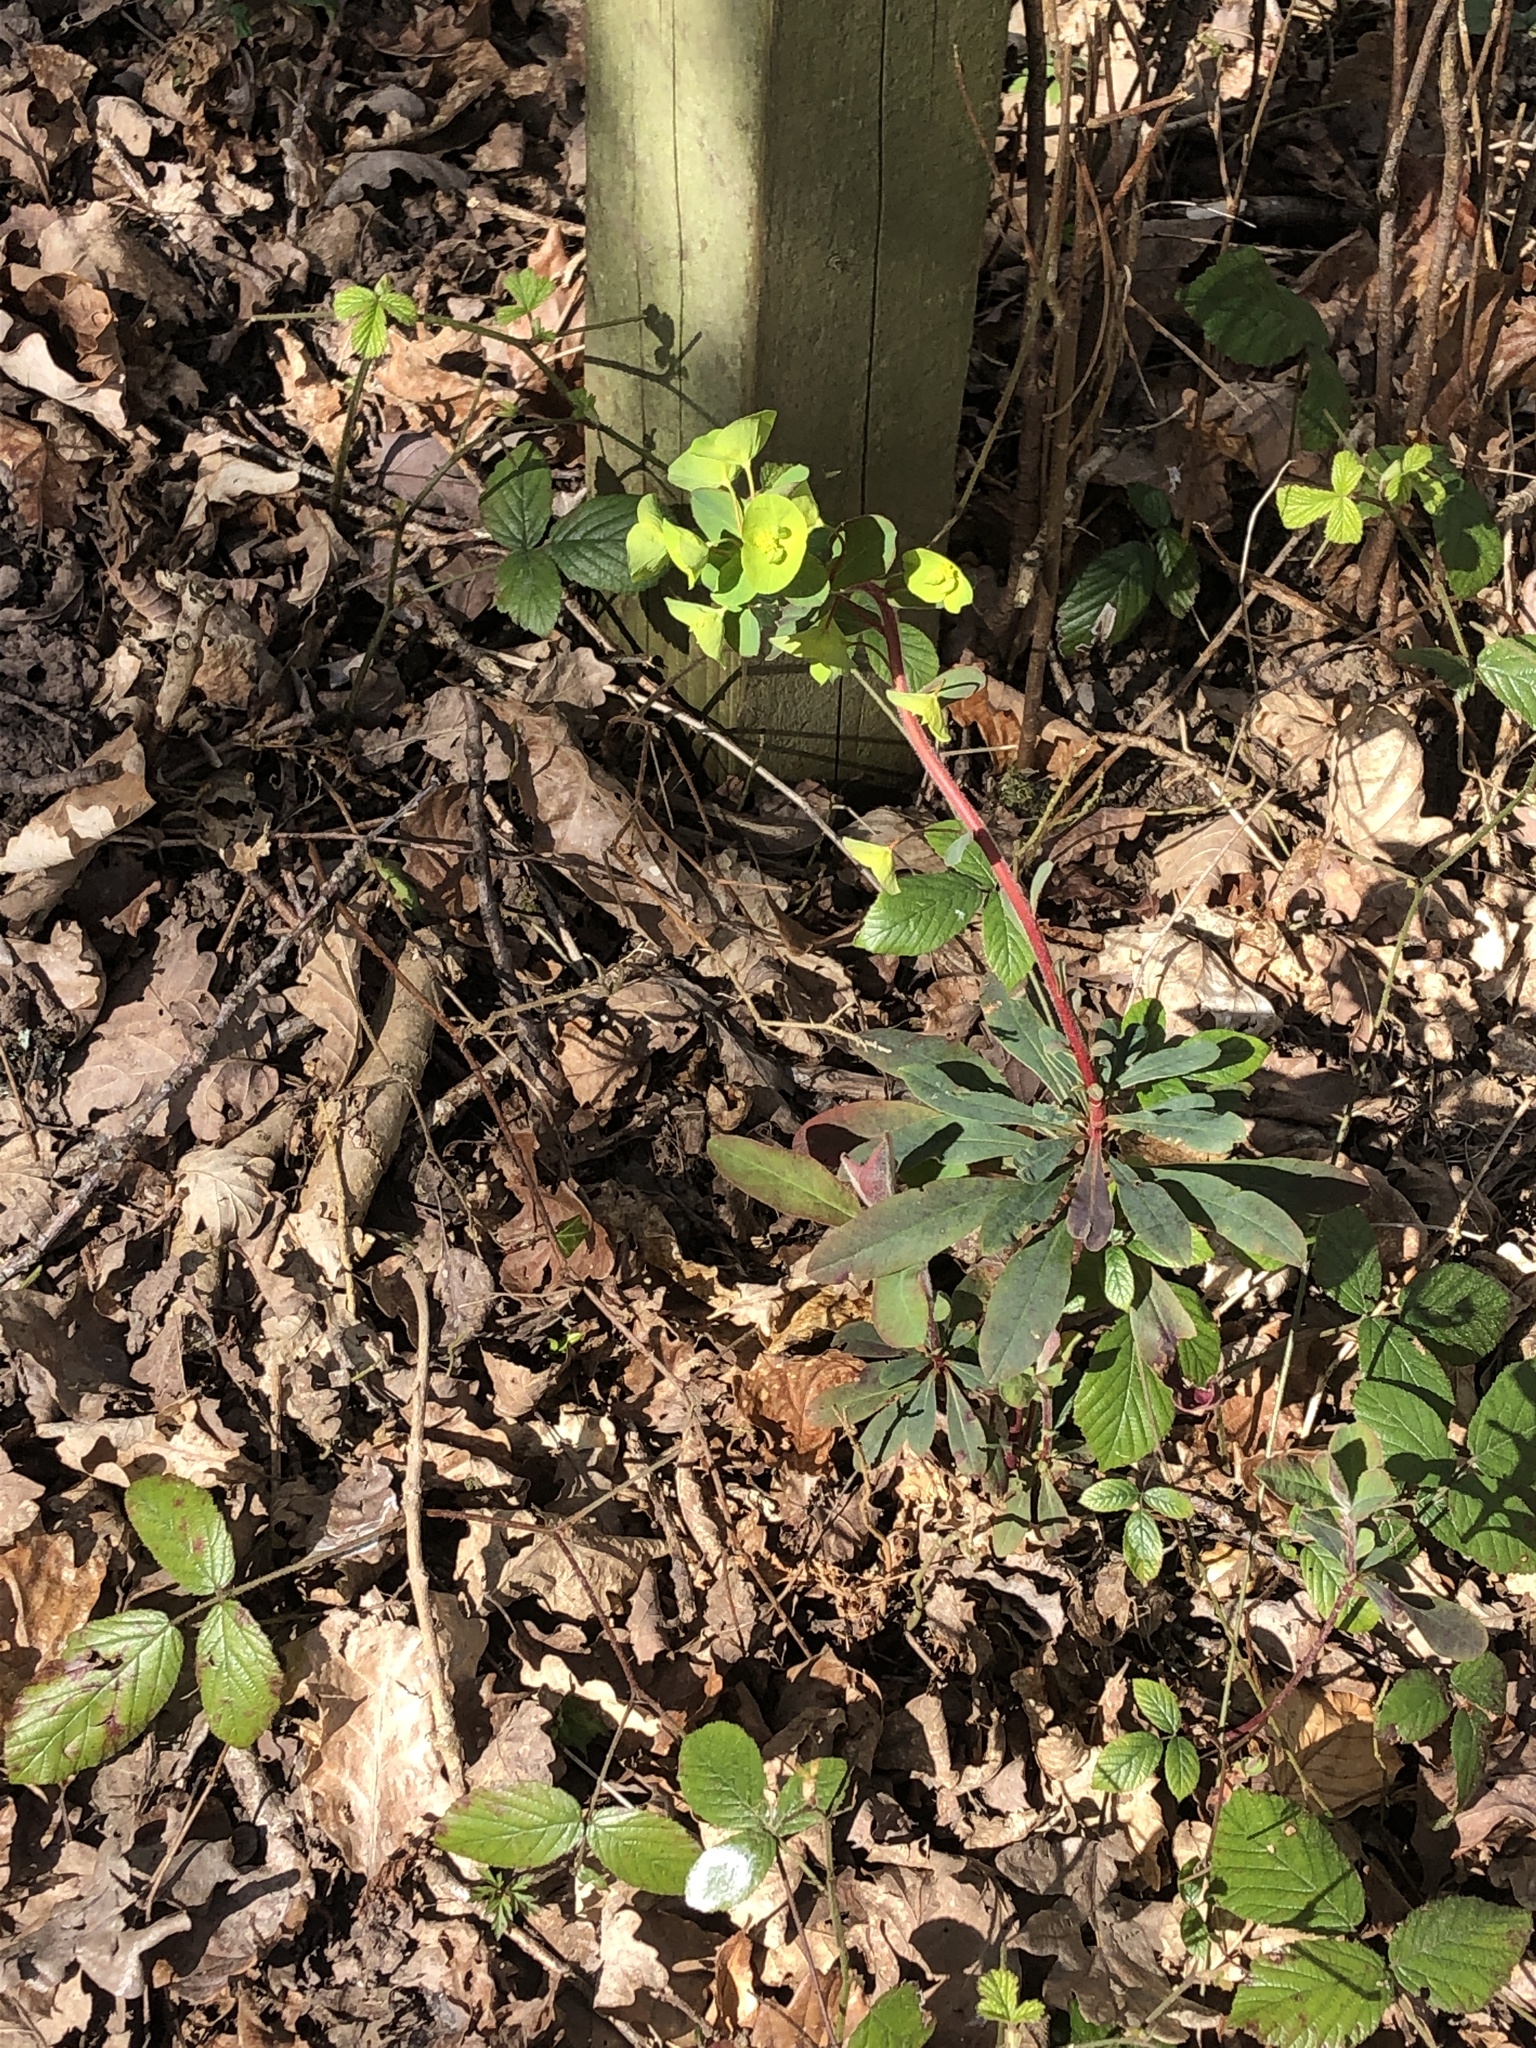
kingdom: Plantae
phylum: Tracheophyta
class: Magnoliopsida
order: Malpighiales
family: Euphorbiaceae
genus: Euphorbia
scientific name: Euphorbia amygdaloides
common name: Wood spurge
